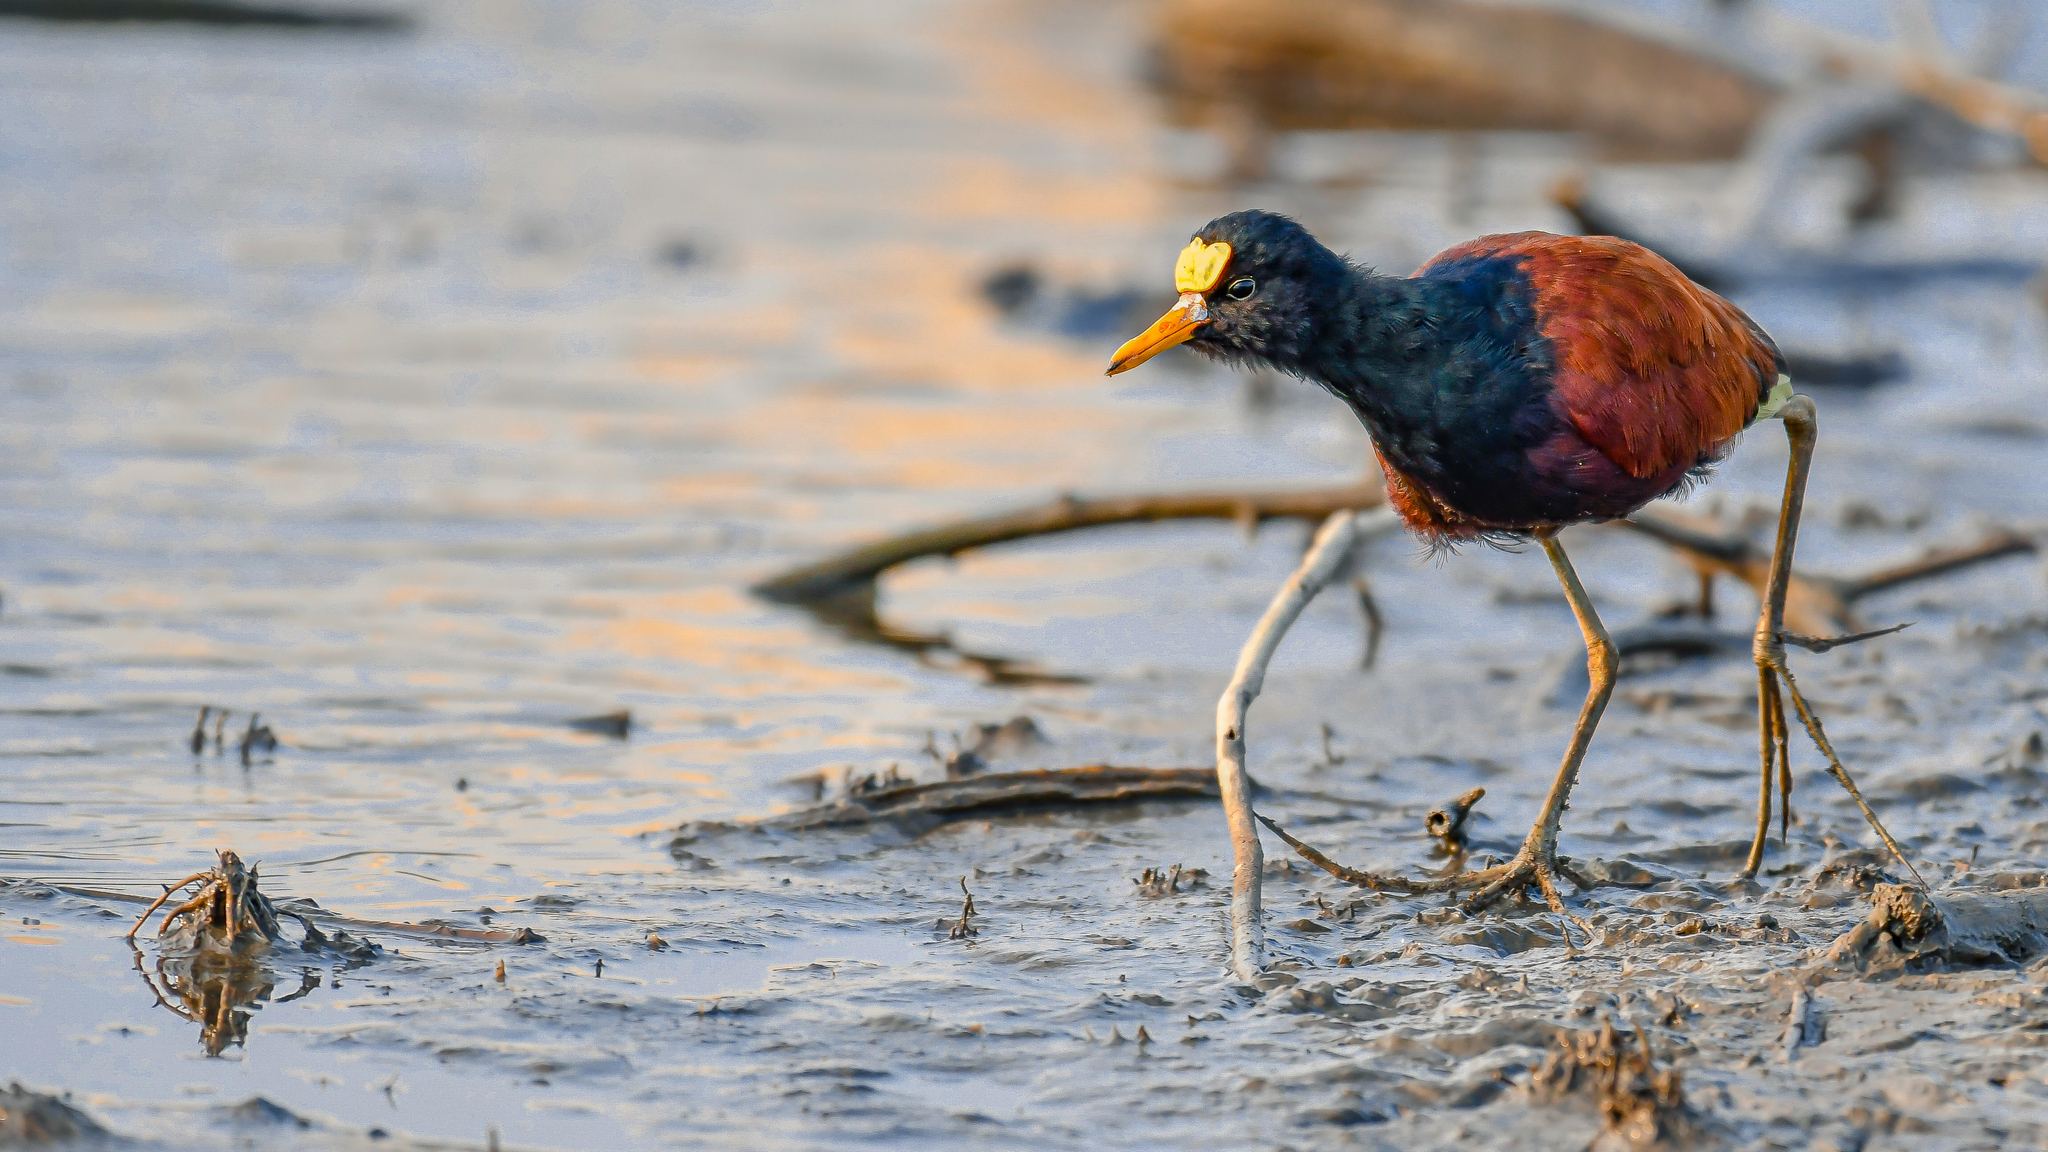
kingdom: Animalia
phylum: Chordata
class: Aves
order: Charadriiformes
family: Jacanidae
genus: Jacana
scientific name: Jacana spinosa
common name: Northern jacana
